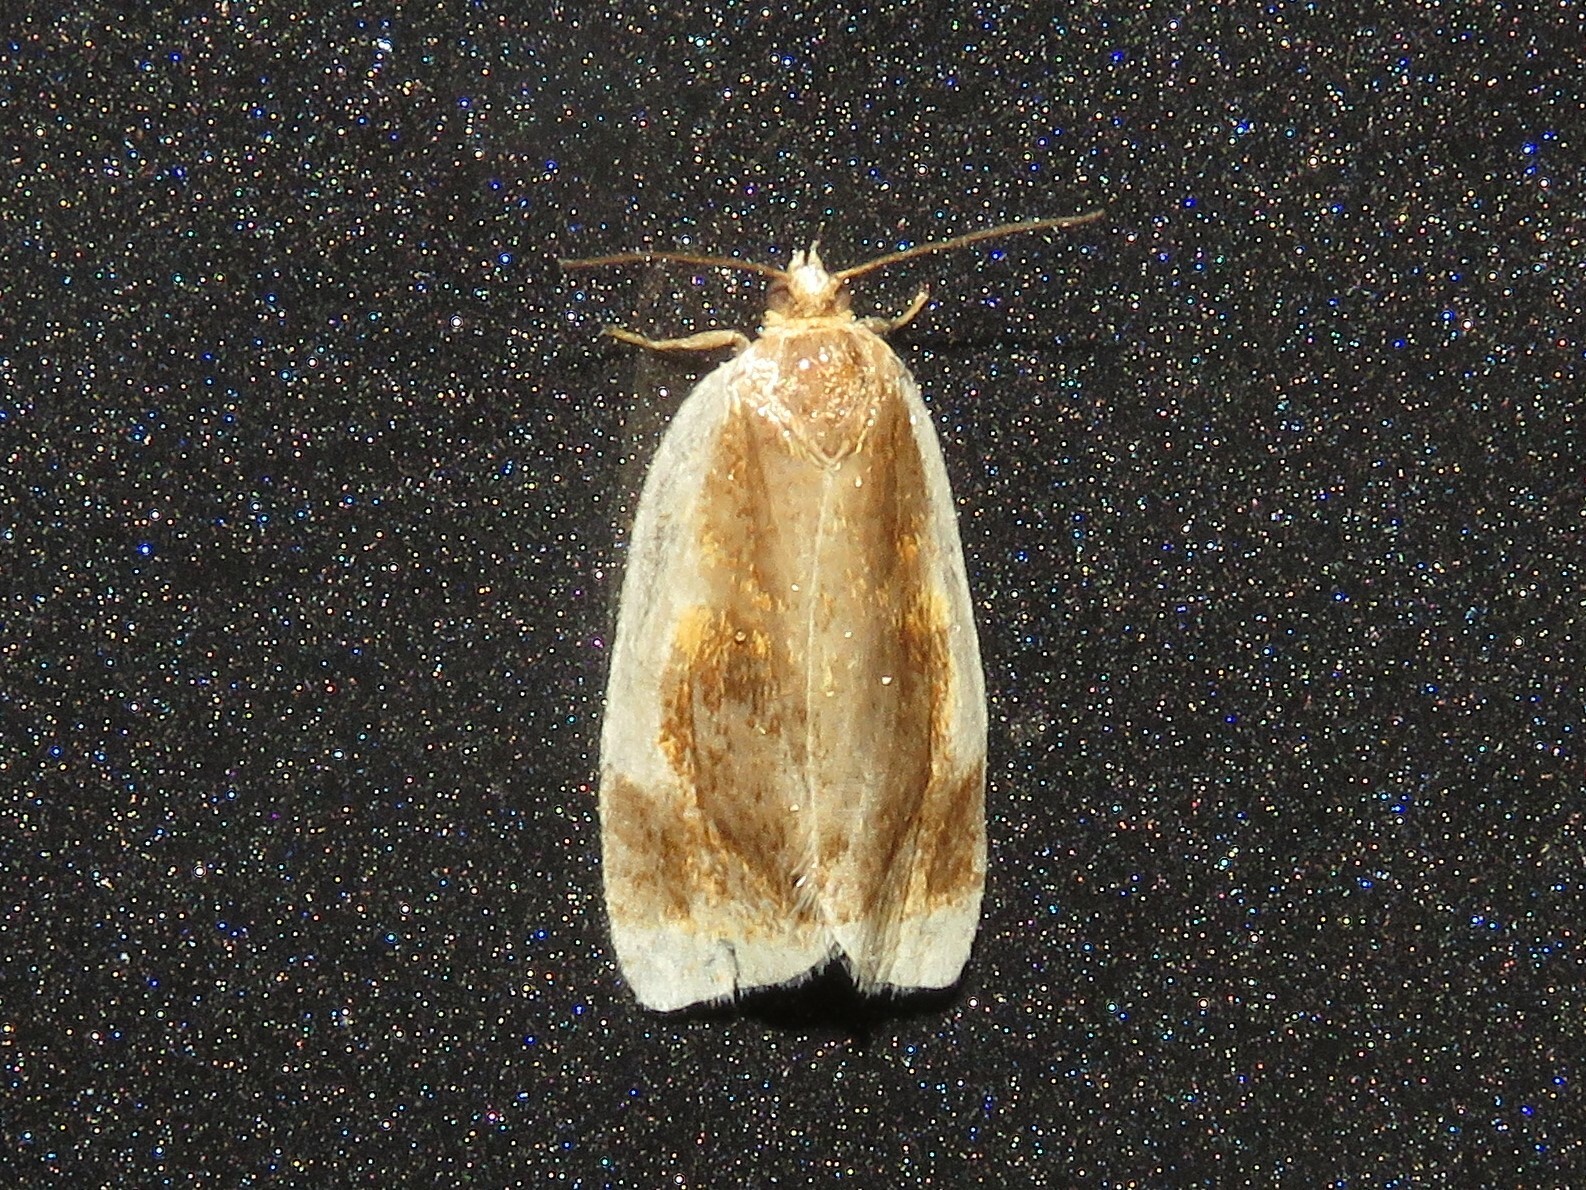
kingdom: Animalia
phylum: Arthropoda
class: Insecta
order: Lepidoptera
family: Tortricidae
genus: Clepsis
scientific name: Clepsis melaleucanus
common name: American apple tortrix
